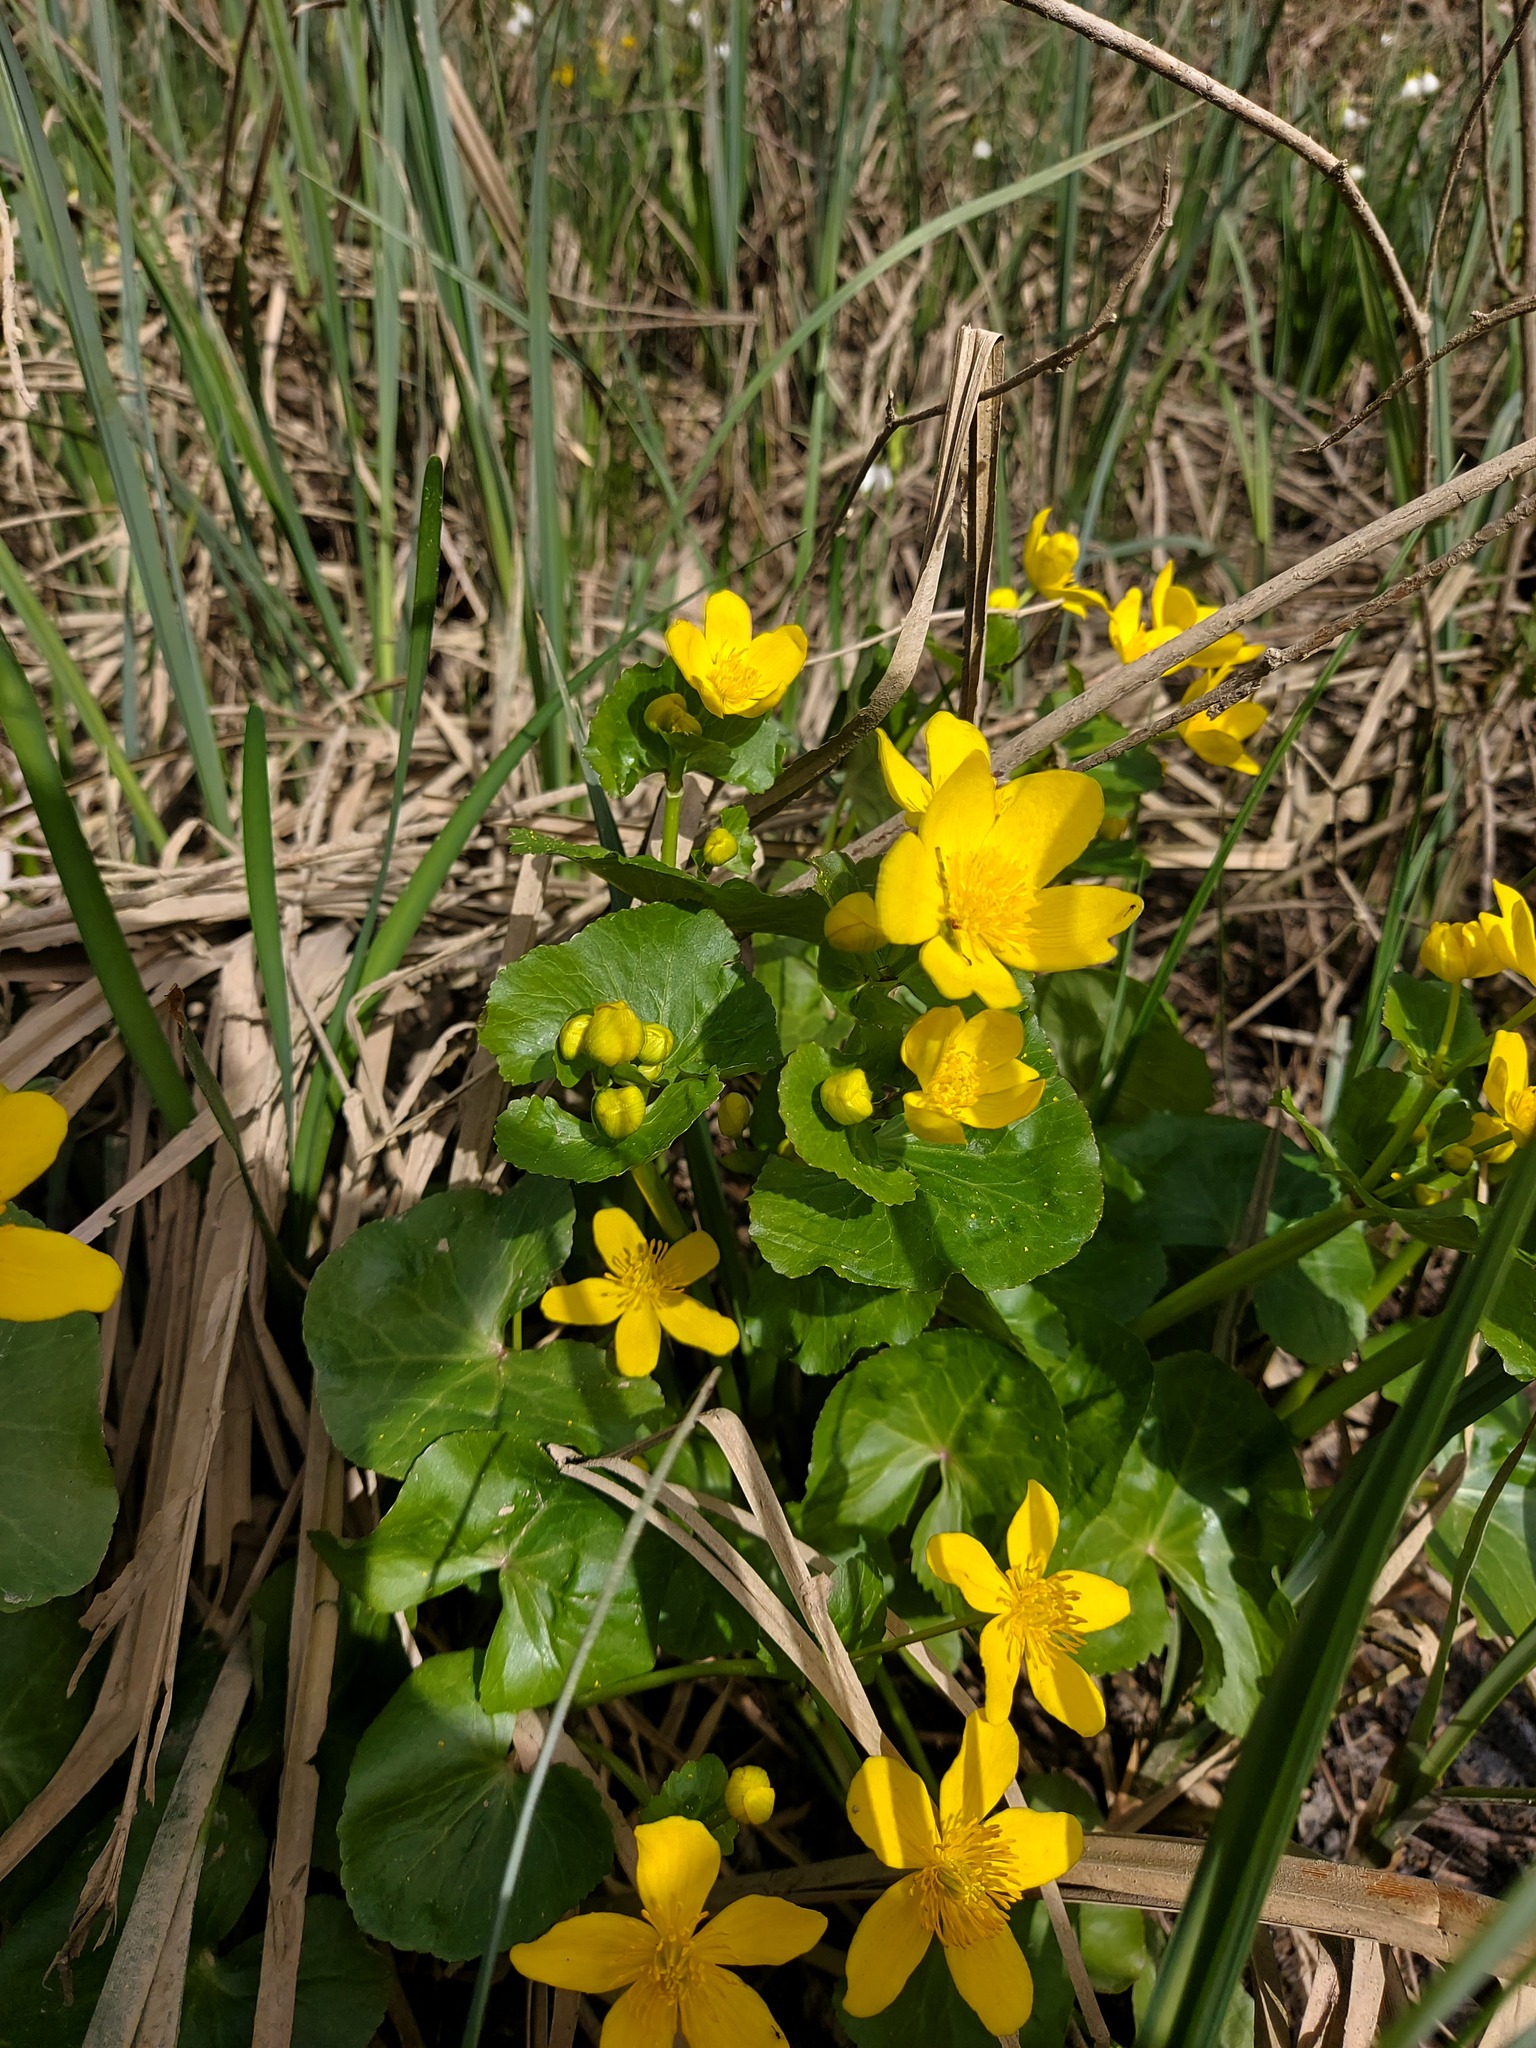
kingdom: Plantae
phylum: Tracheophyta
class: Magnoliopsida
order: Ranunculales
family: Ranunculaceae
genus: Caltha
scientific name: Caltha palustris
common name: Marsh marigold
